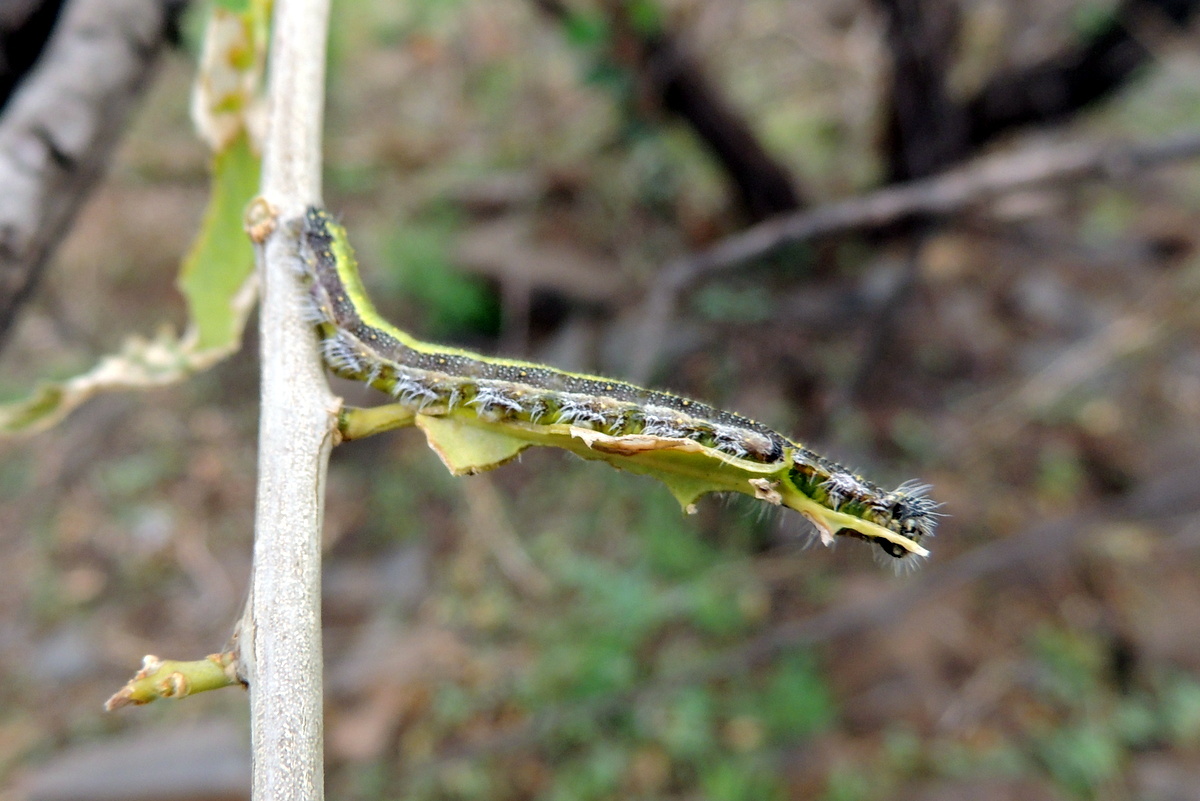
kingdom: Animalia
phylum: Arthropoda
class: Insecta
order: Lepidoptera
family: Pieridae
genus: Belenois
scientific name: Belenois aurota
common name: Brown-veined white
